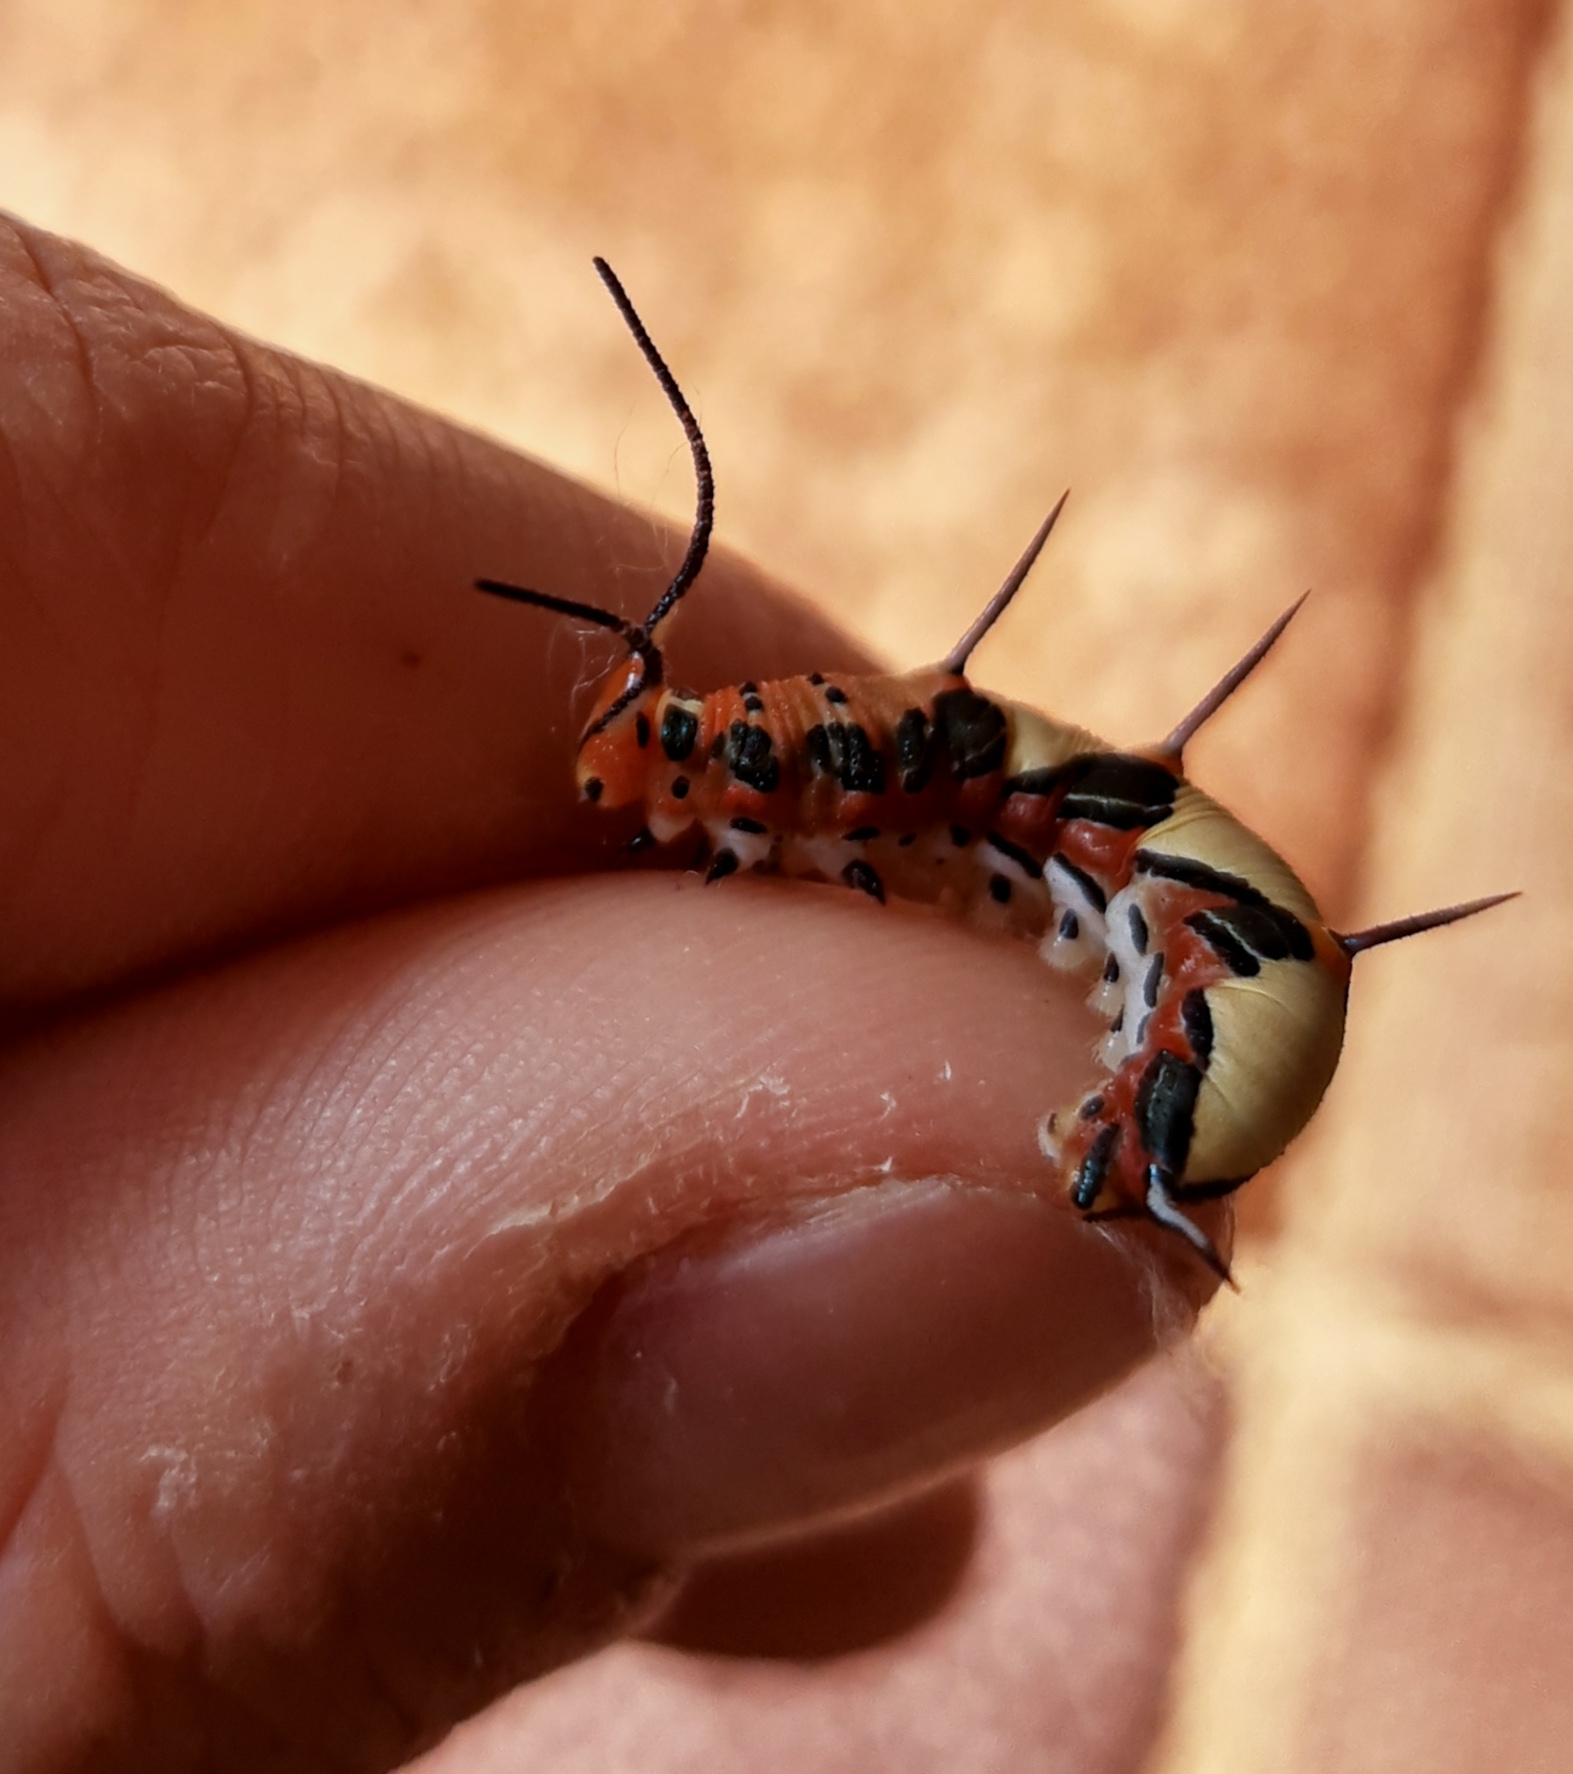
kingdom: Animalia
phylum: Arthropoda
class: Insecta
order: Lepidoptera
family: Nymphalidae
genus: Marpesia
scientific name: Marpesia petreus
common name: Red dagger wing
